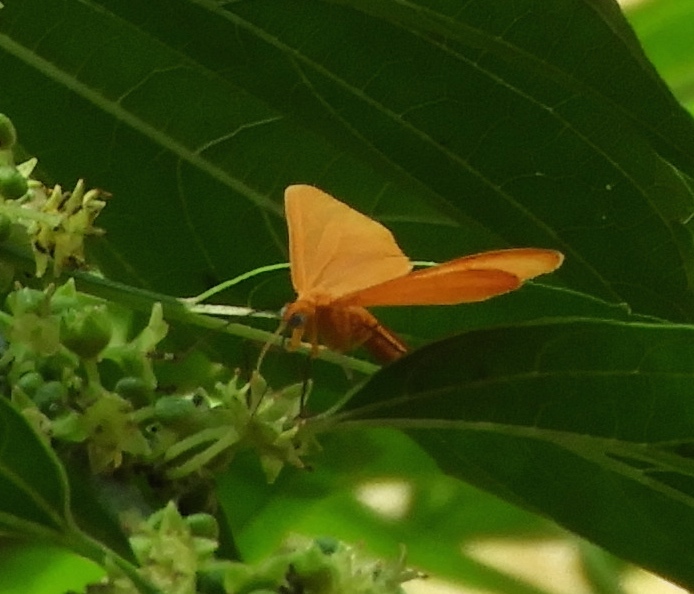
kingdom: Animalia
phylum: Arthropoda
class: Insecta
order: Lepidoptera
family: Geometridae
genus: Eubaphe
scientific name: Eubaphe unicolor
